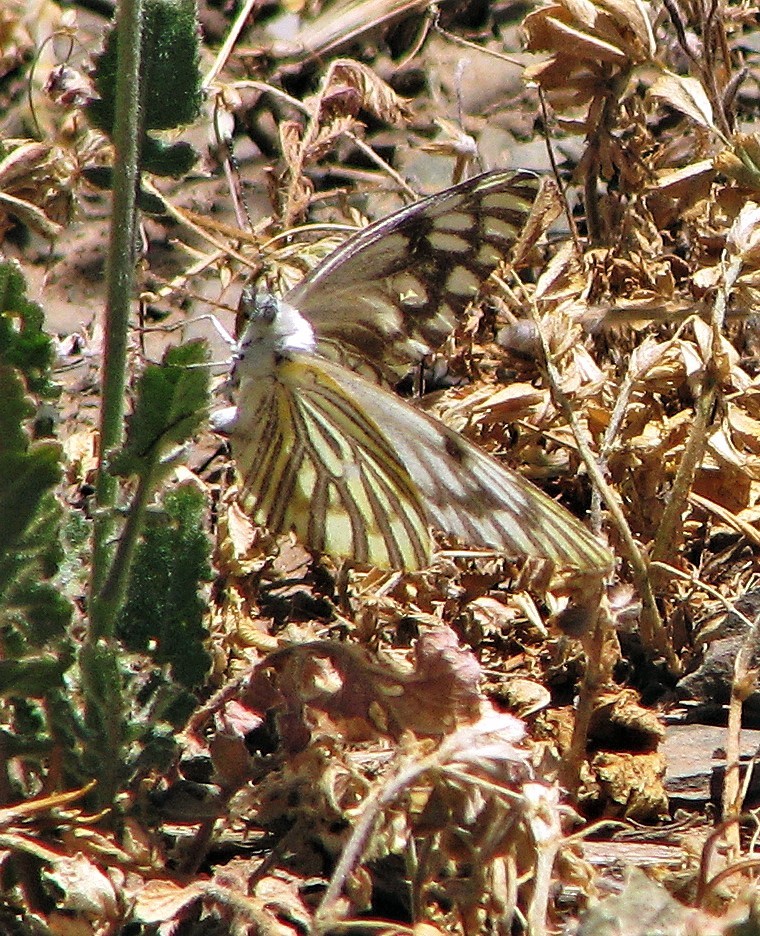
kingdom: Animalia
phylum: Arthropoda
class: Insecta
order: Lepidoptera
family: Pieridae
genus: Tatochila
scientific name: Tatochila mercedis
